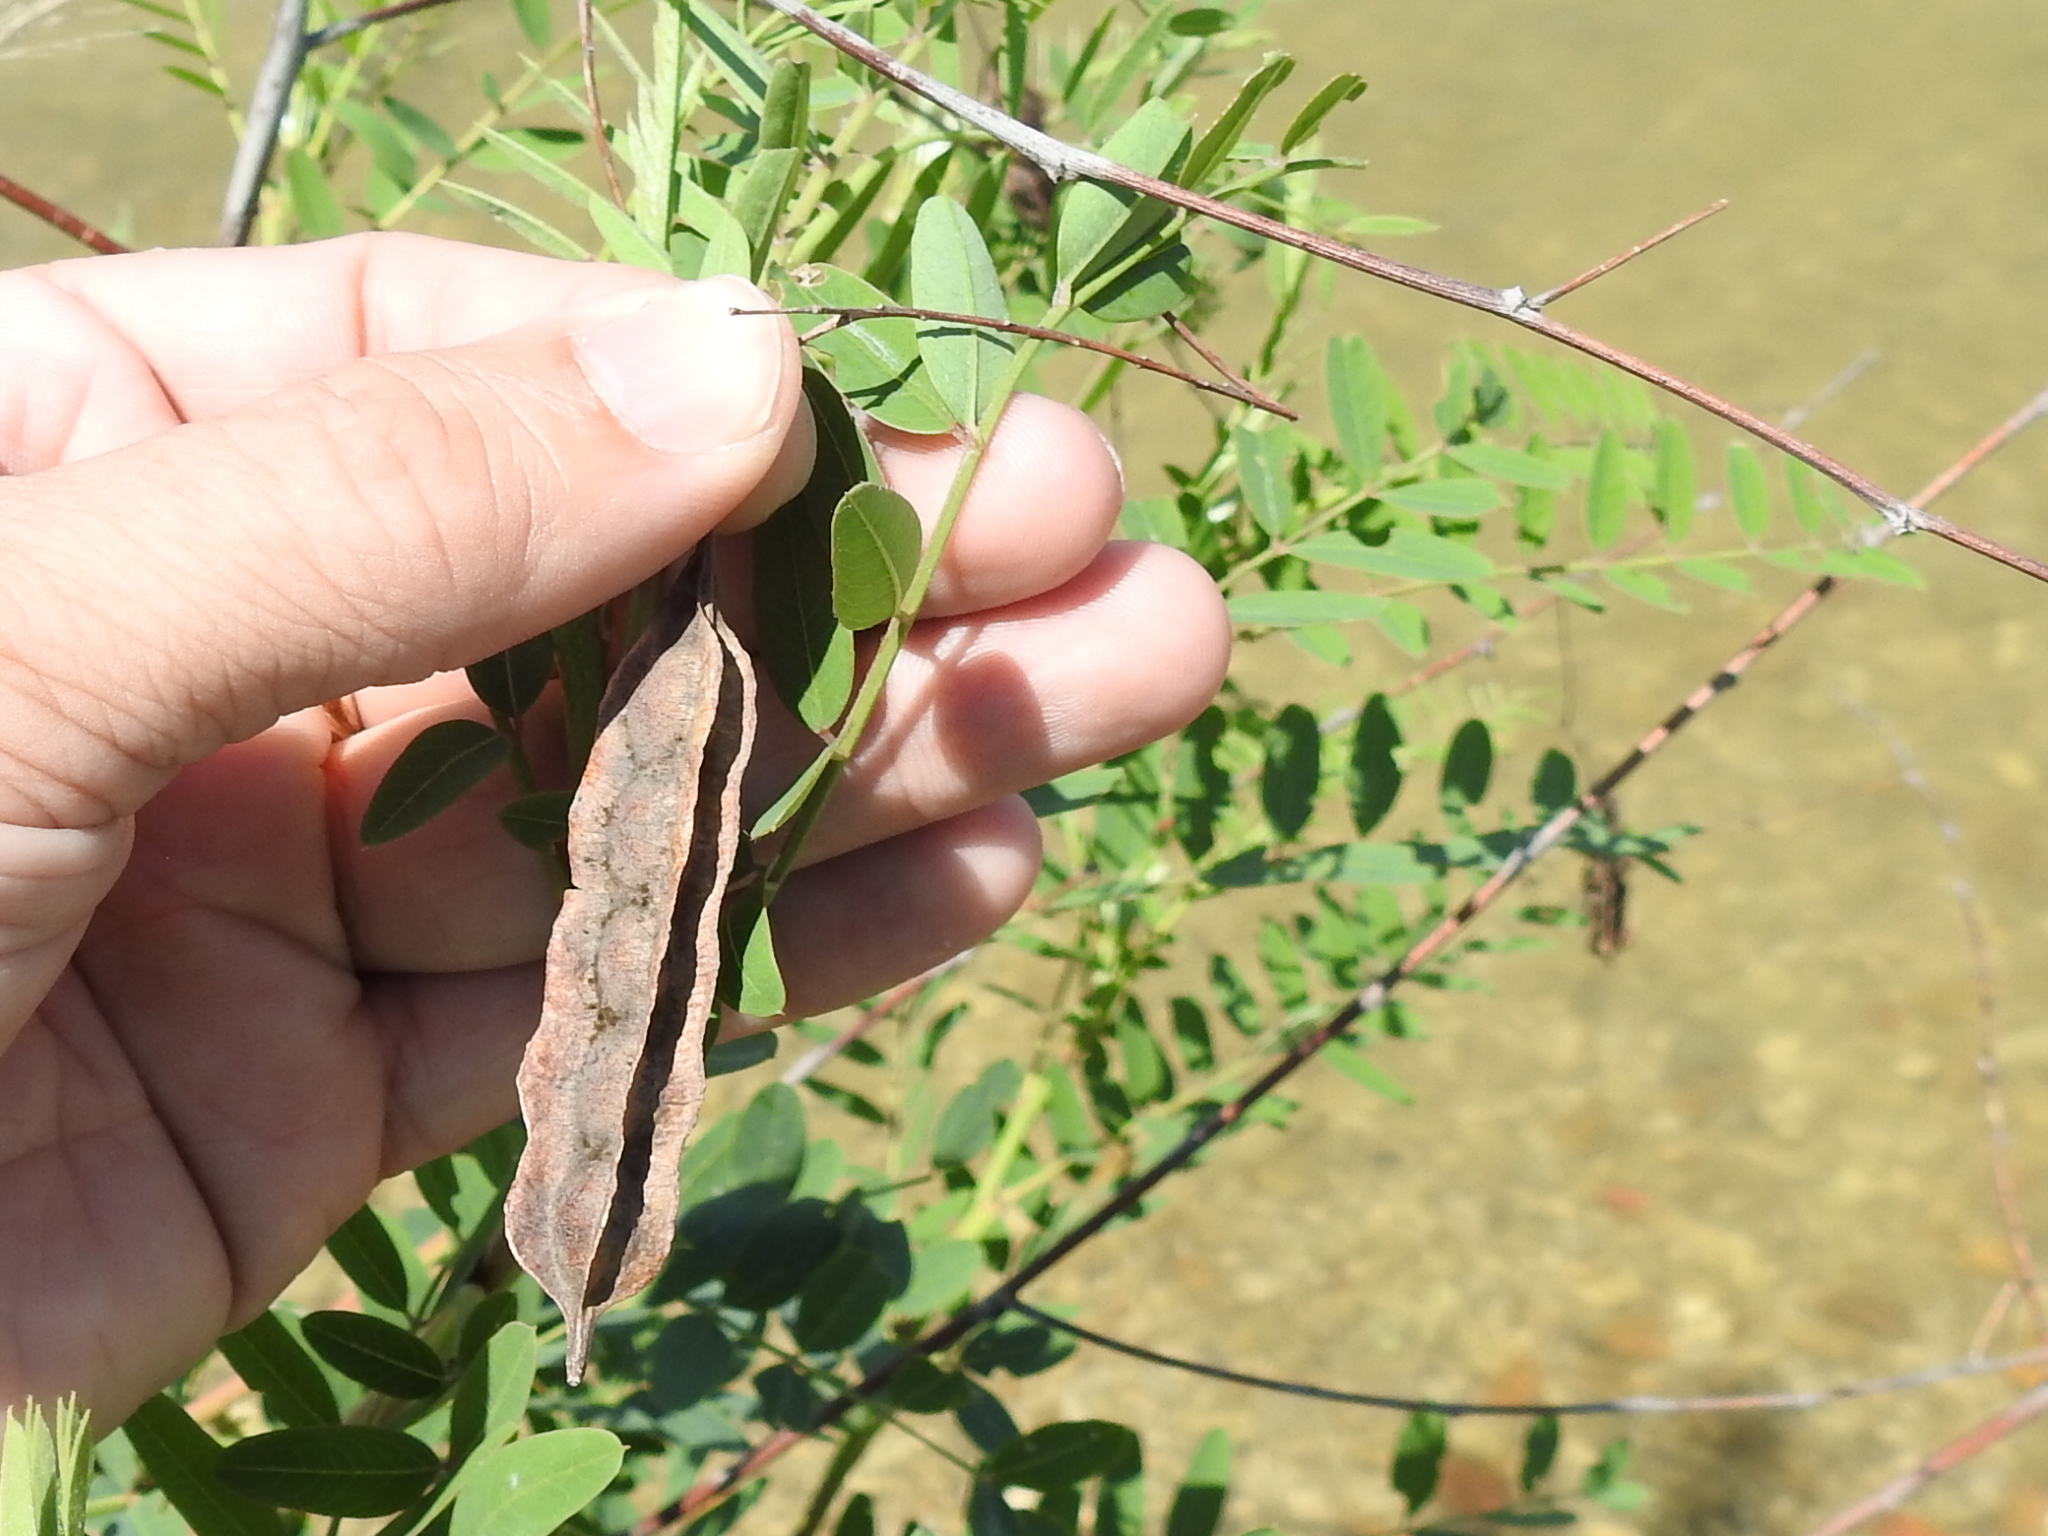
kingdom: Plantae
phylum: Tracheophyta
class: Magnoliopsida
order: Fabales
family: Fabaceae
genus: Sesbania
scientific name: Sesbania drummondii
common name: Poison-bean
